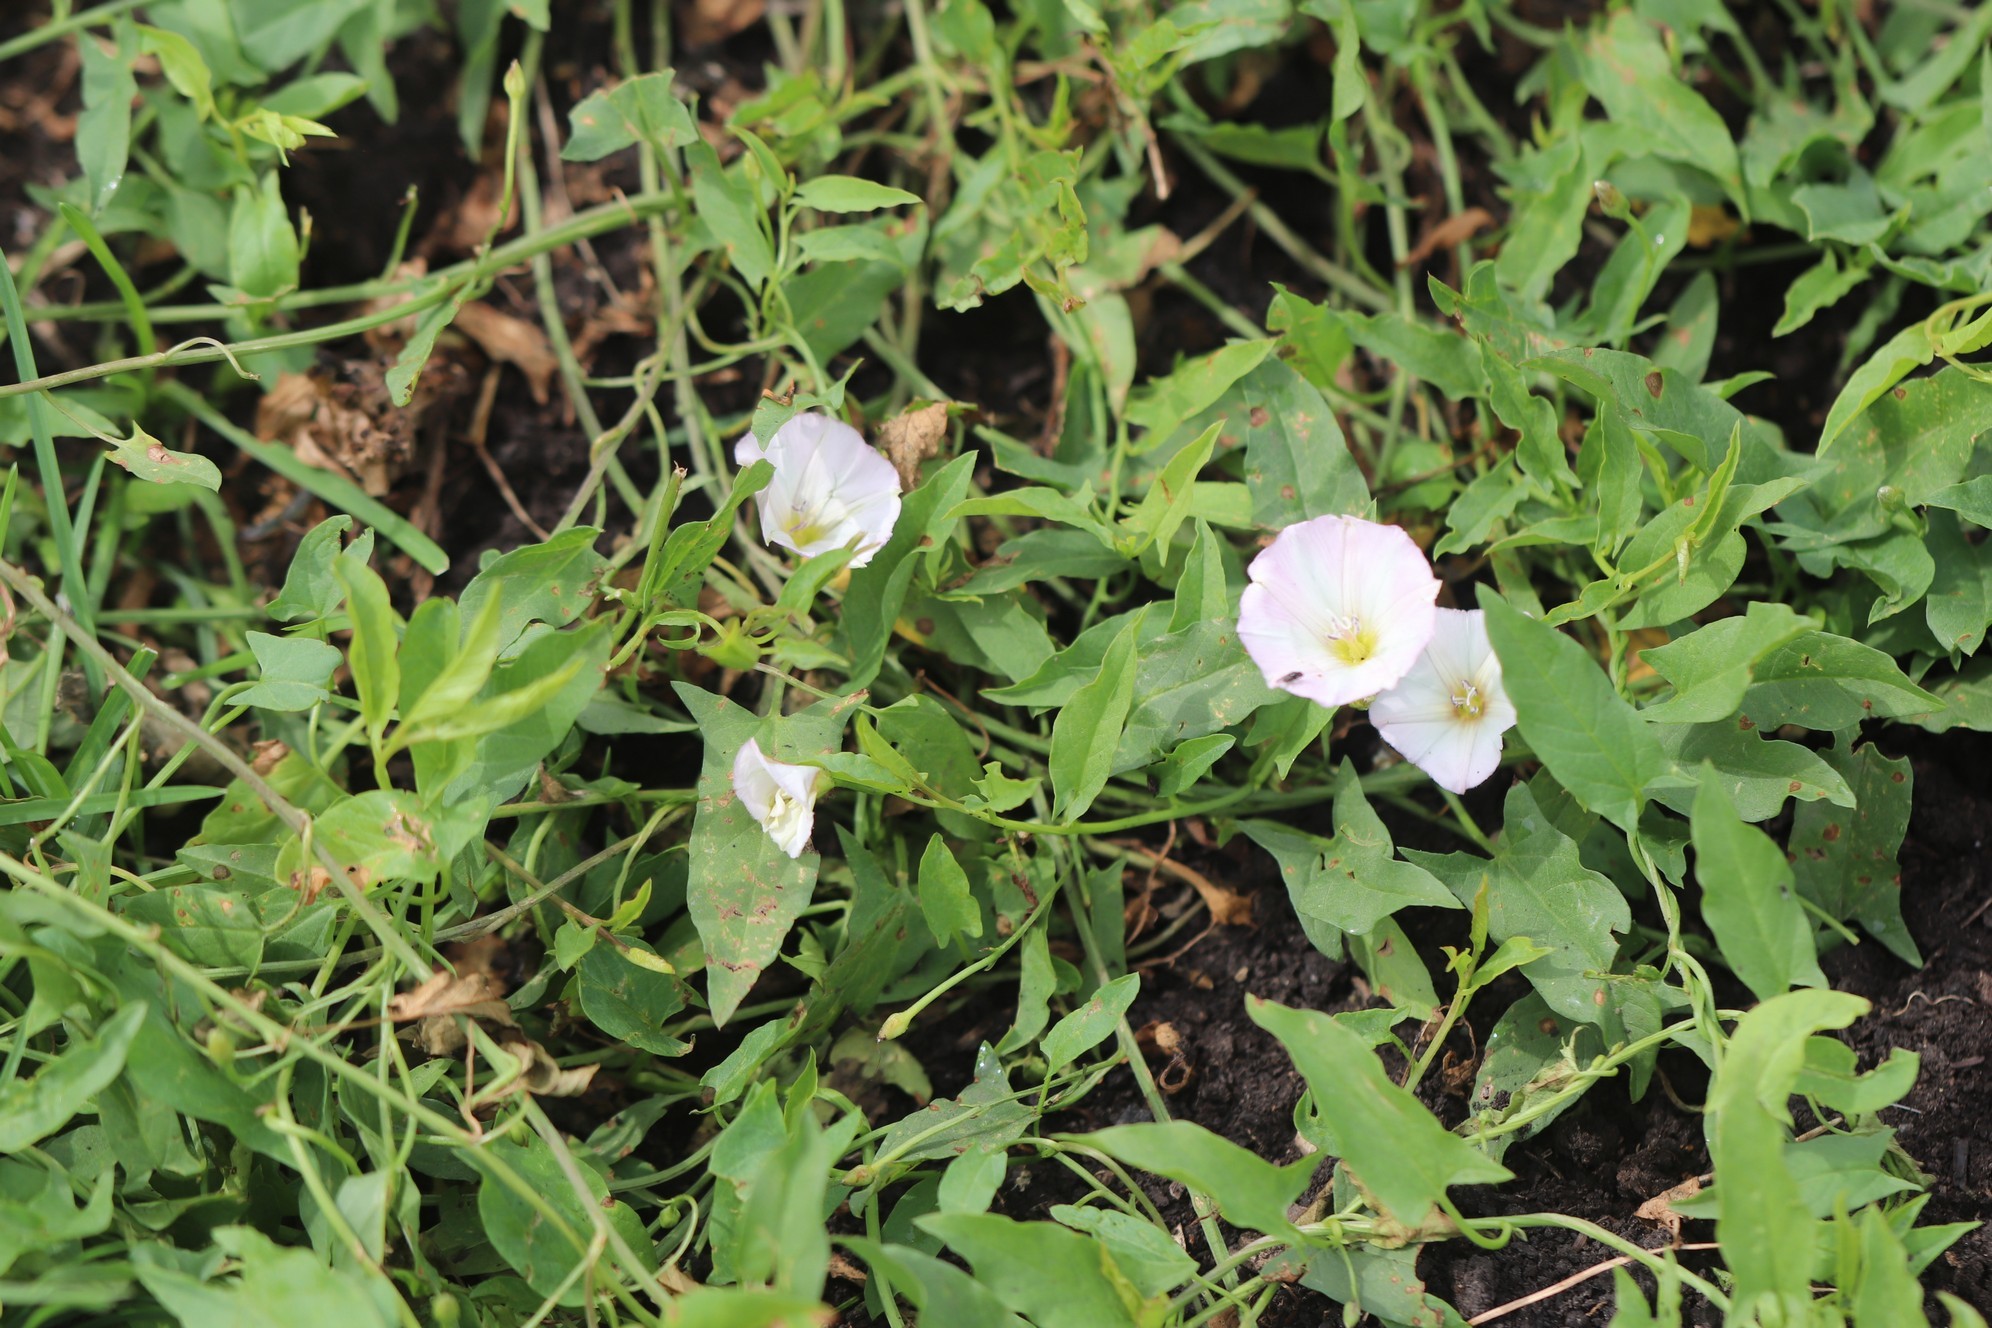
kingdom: Plantae
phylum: Tracheophyta
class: Magnoliopsida
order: Solanales
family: Convolvulaceae
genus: Convolvulus
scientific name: Convolvulus arvensis
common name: Field bindweed
